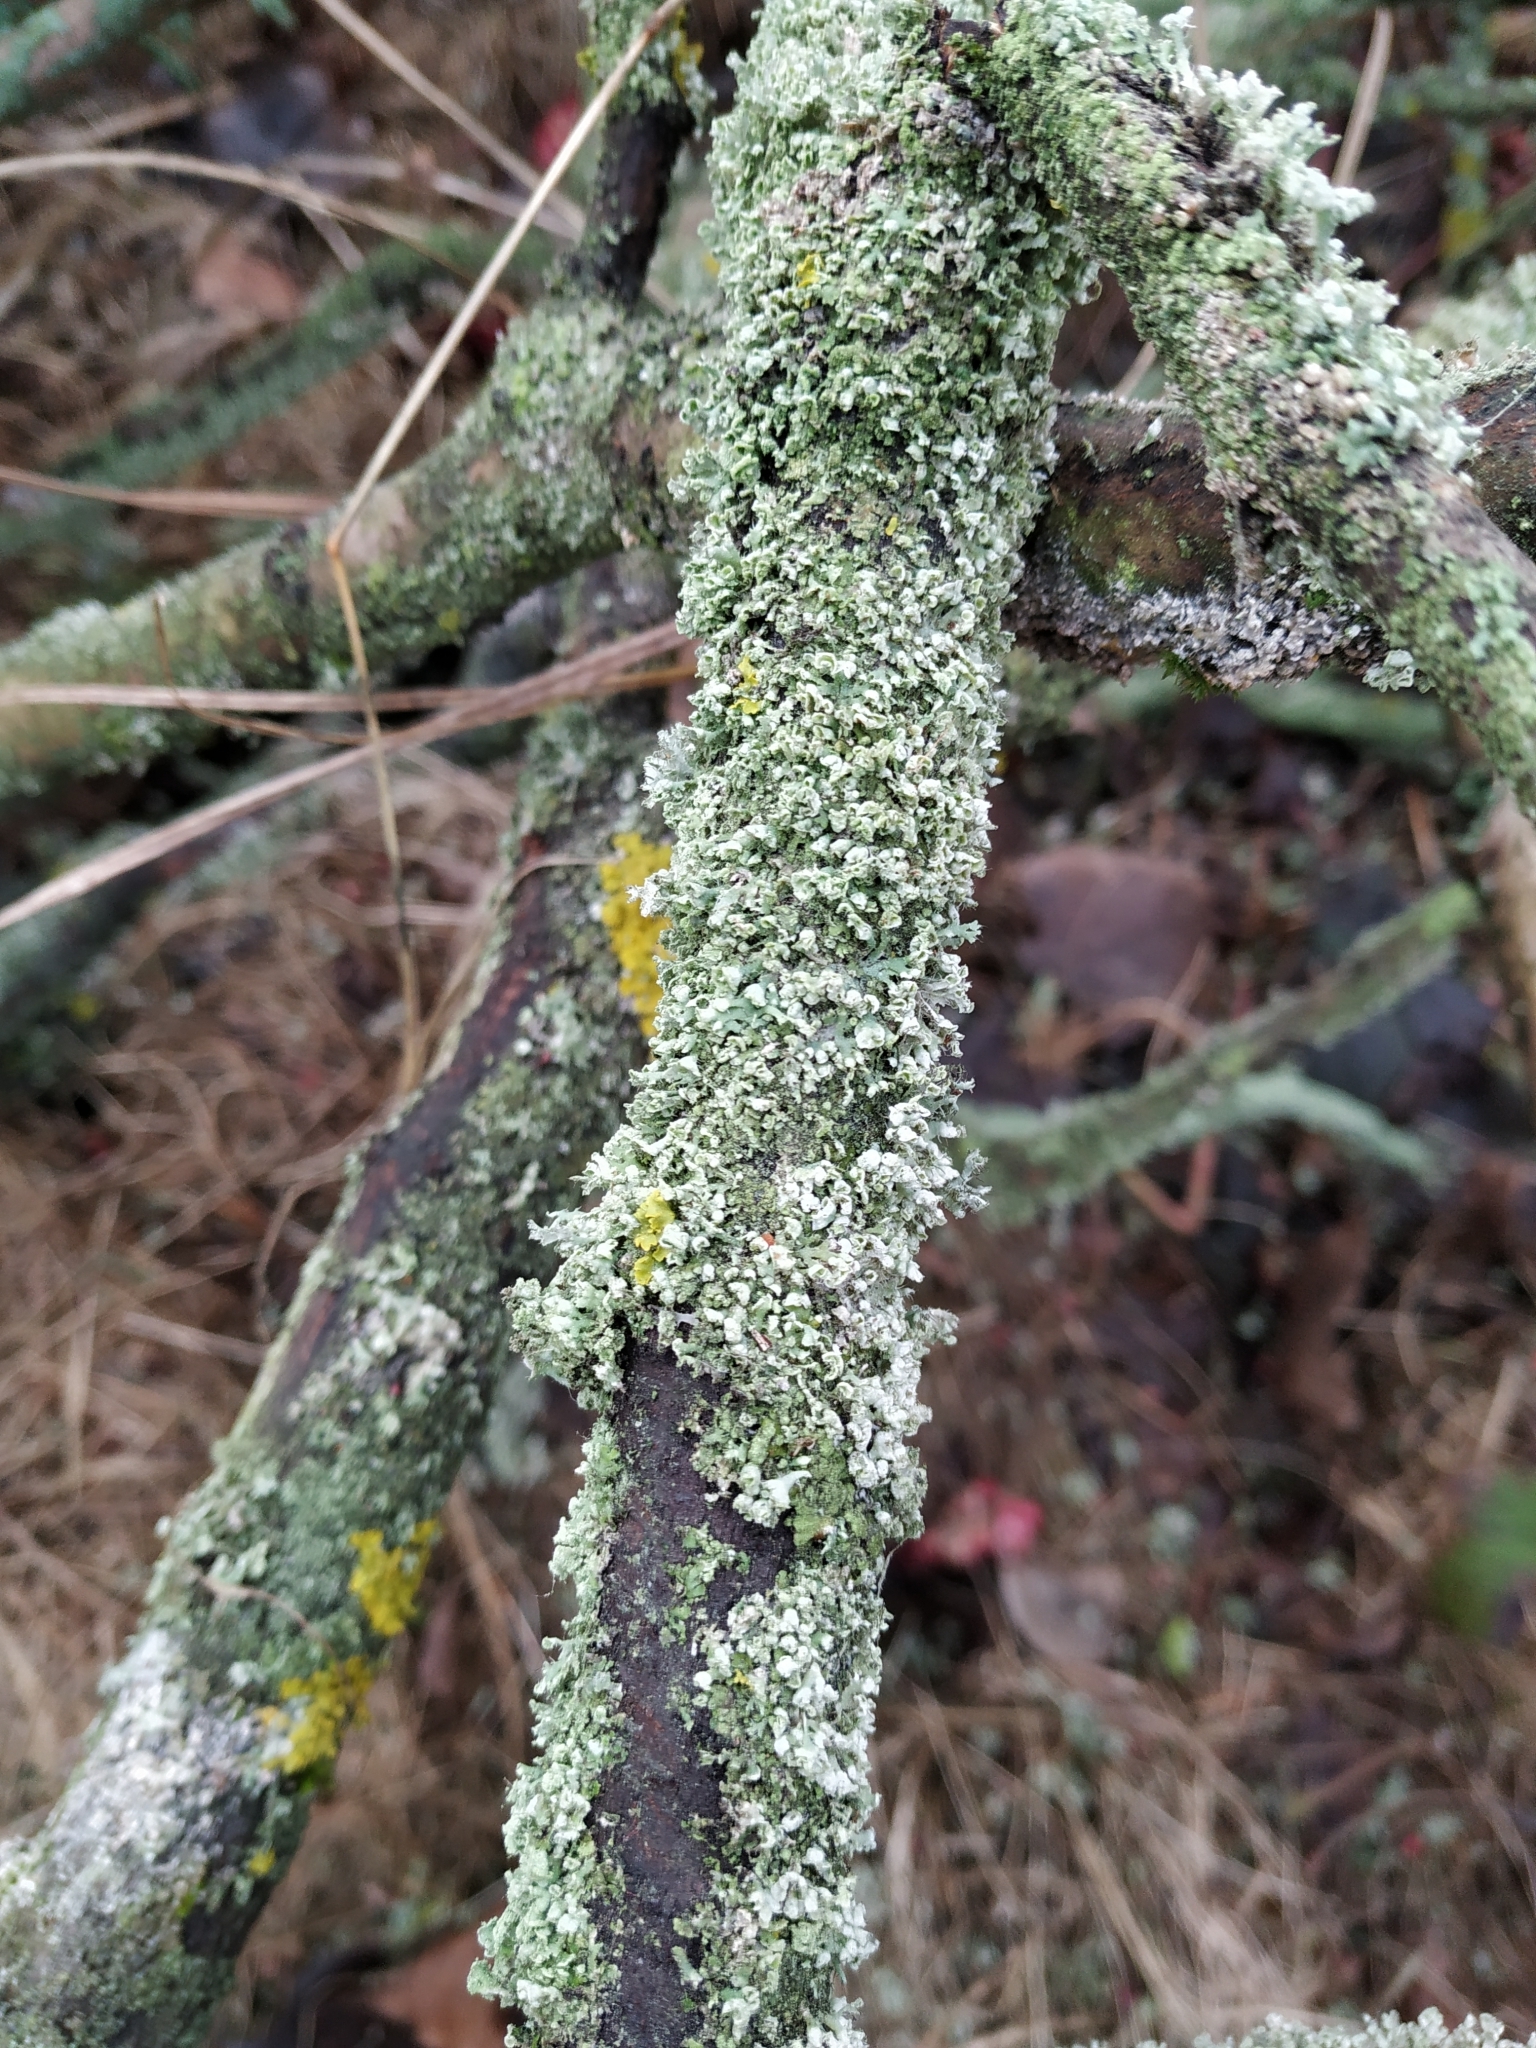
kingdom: Fungi
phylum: Ascomycota
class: Lecanoromycetes
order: Caliciales
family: Physciaceae
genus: Physcia
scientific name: Physcia adscendens
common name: Hooded rosette lichen
